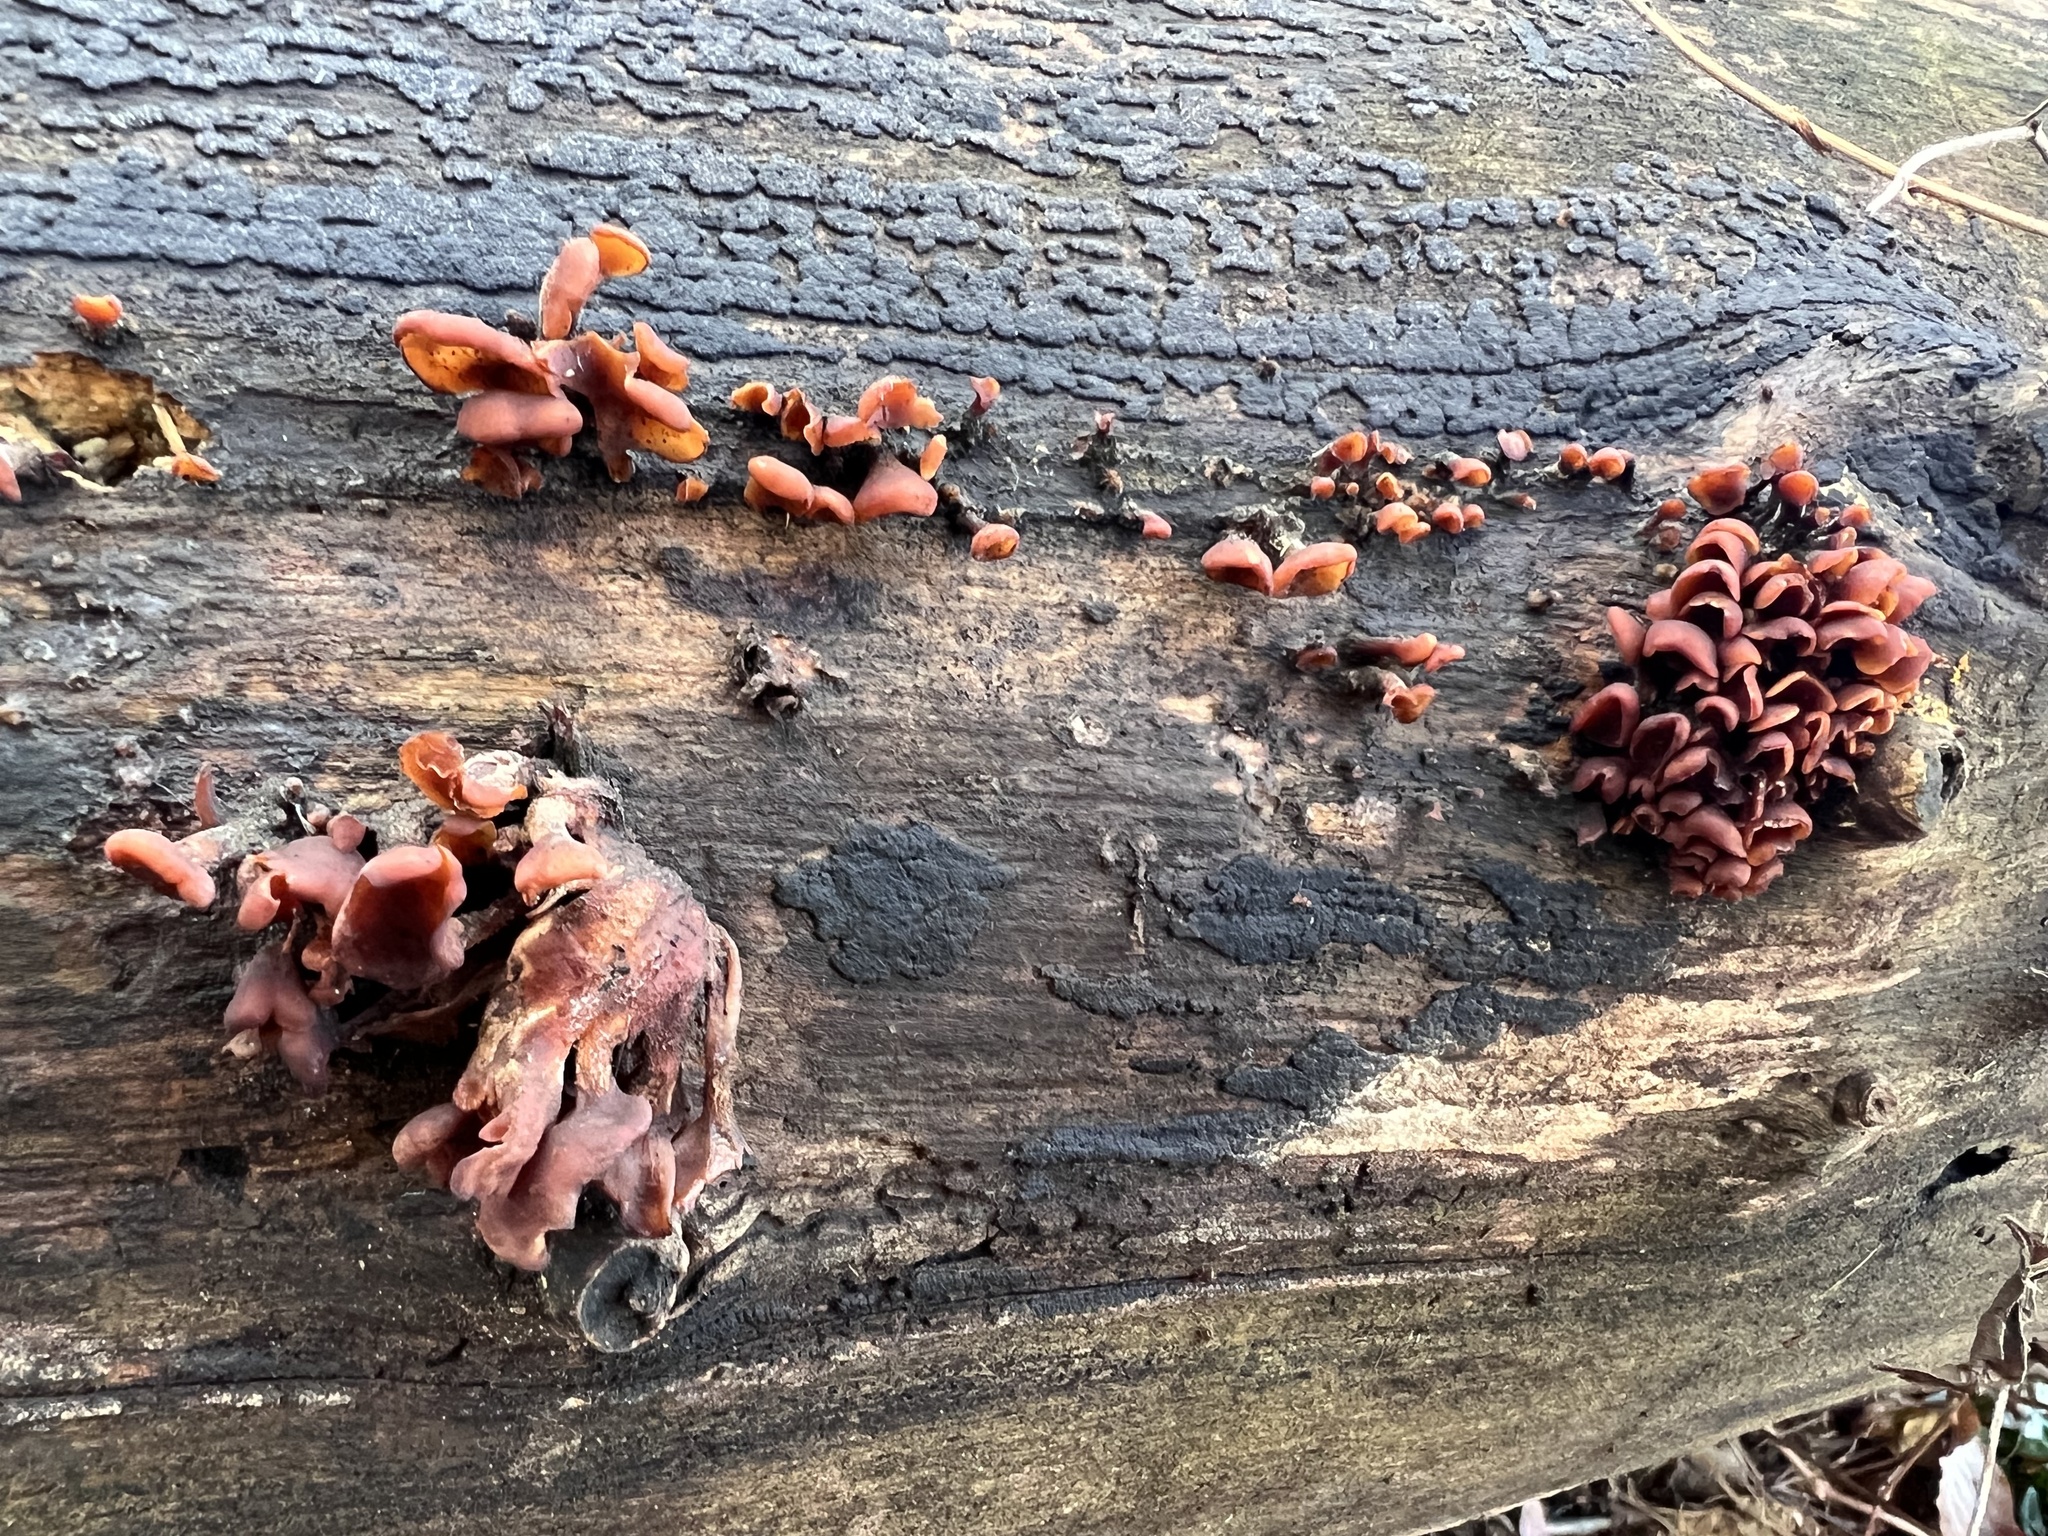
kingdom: Fungi
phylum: Basidiomycota
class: Dacrymycetes
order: Dacrymycetales
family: Dacrymycetaceae
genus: Dacryopinax
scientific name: Dacryopinax elegans
